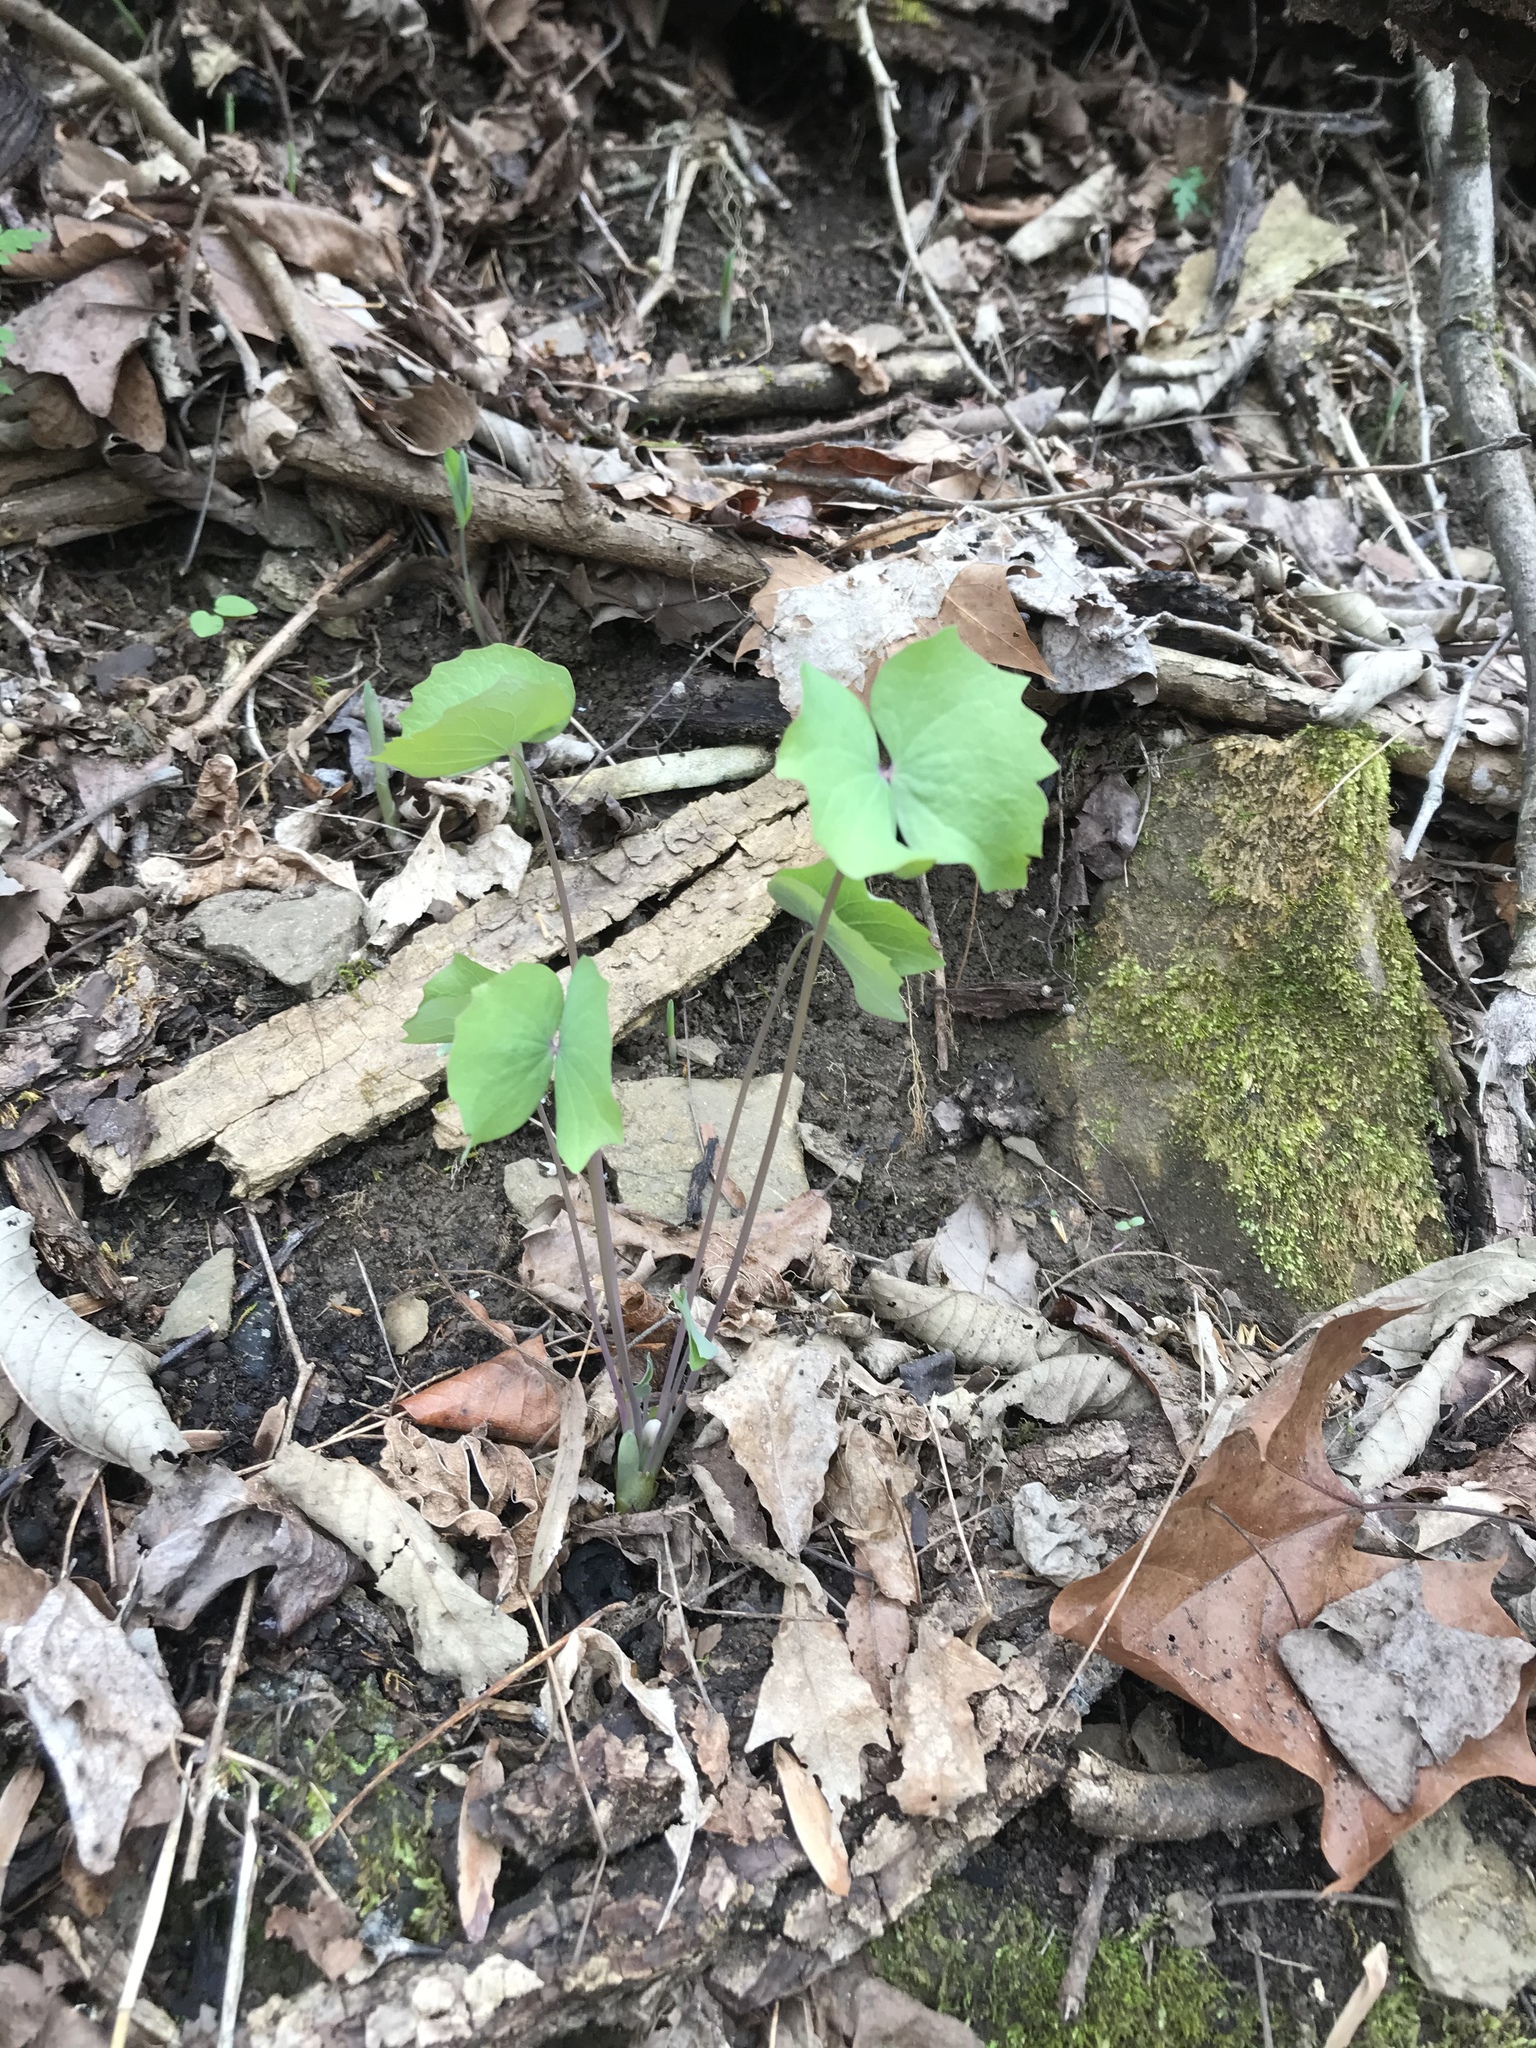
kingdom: Plantae
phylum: Tracheophyta
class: Magnoliopsida
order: Ranunculales
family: Berberidaceae
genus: Jeffersonia
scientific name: Jeffersonia diphylla
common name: Rheumatism-root
